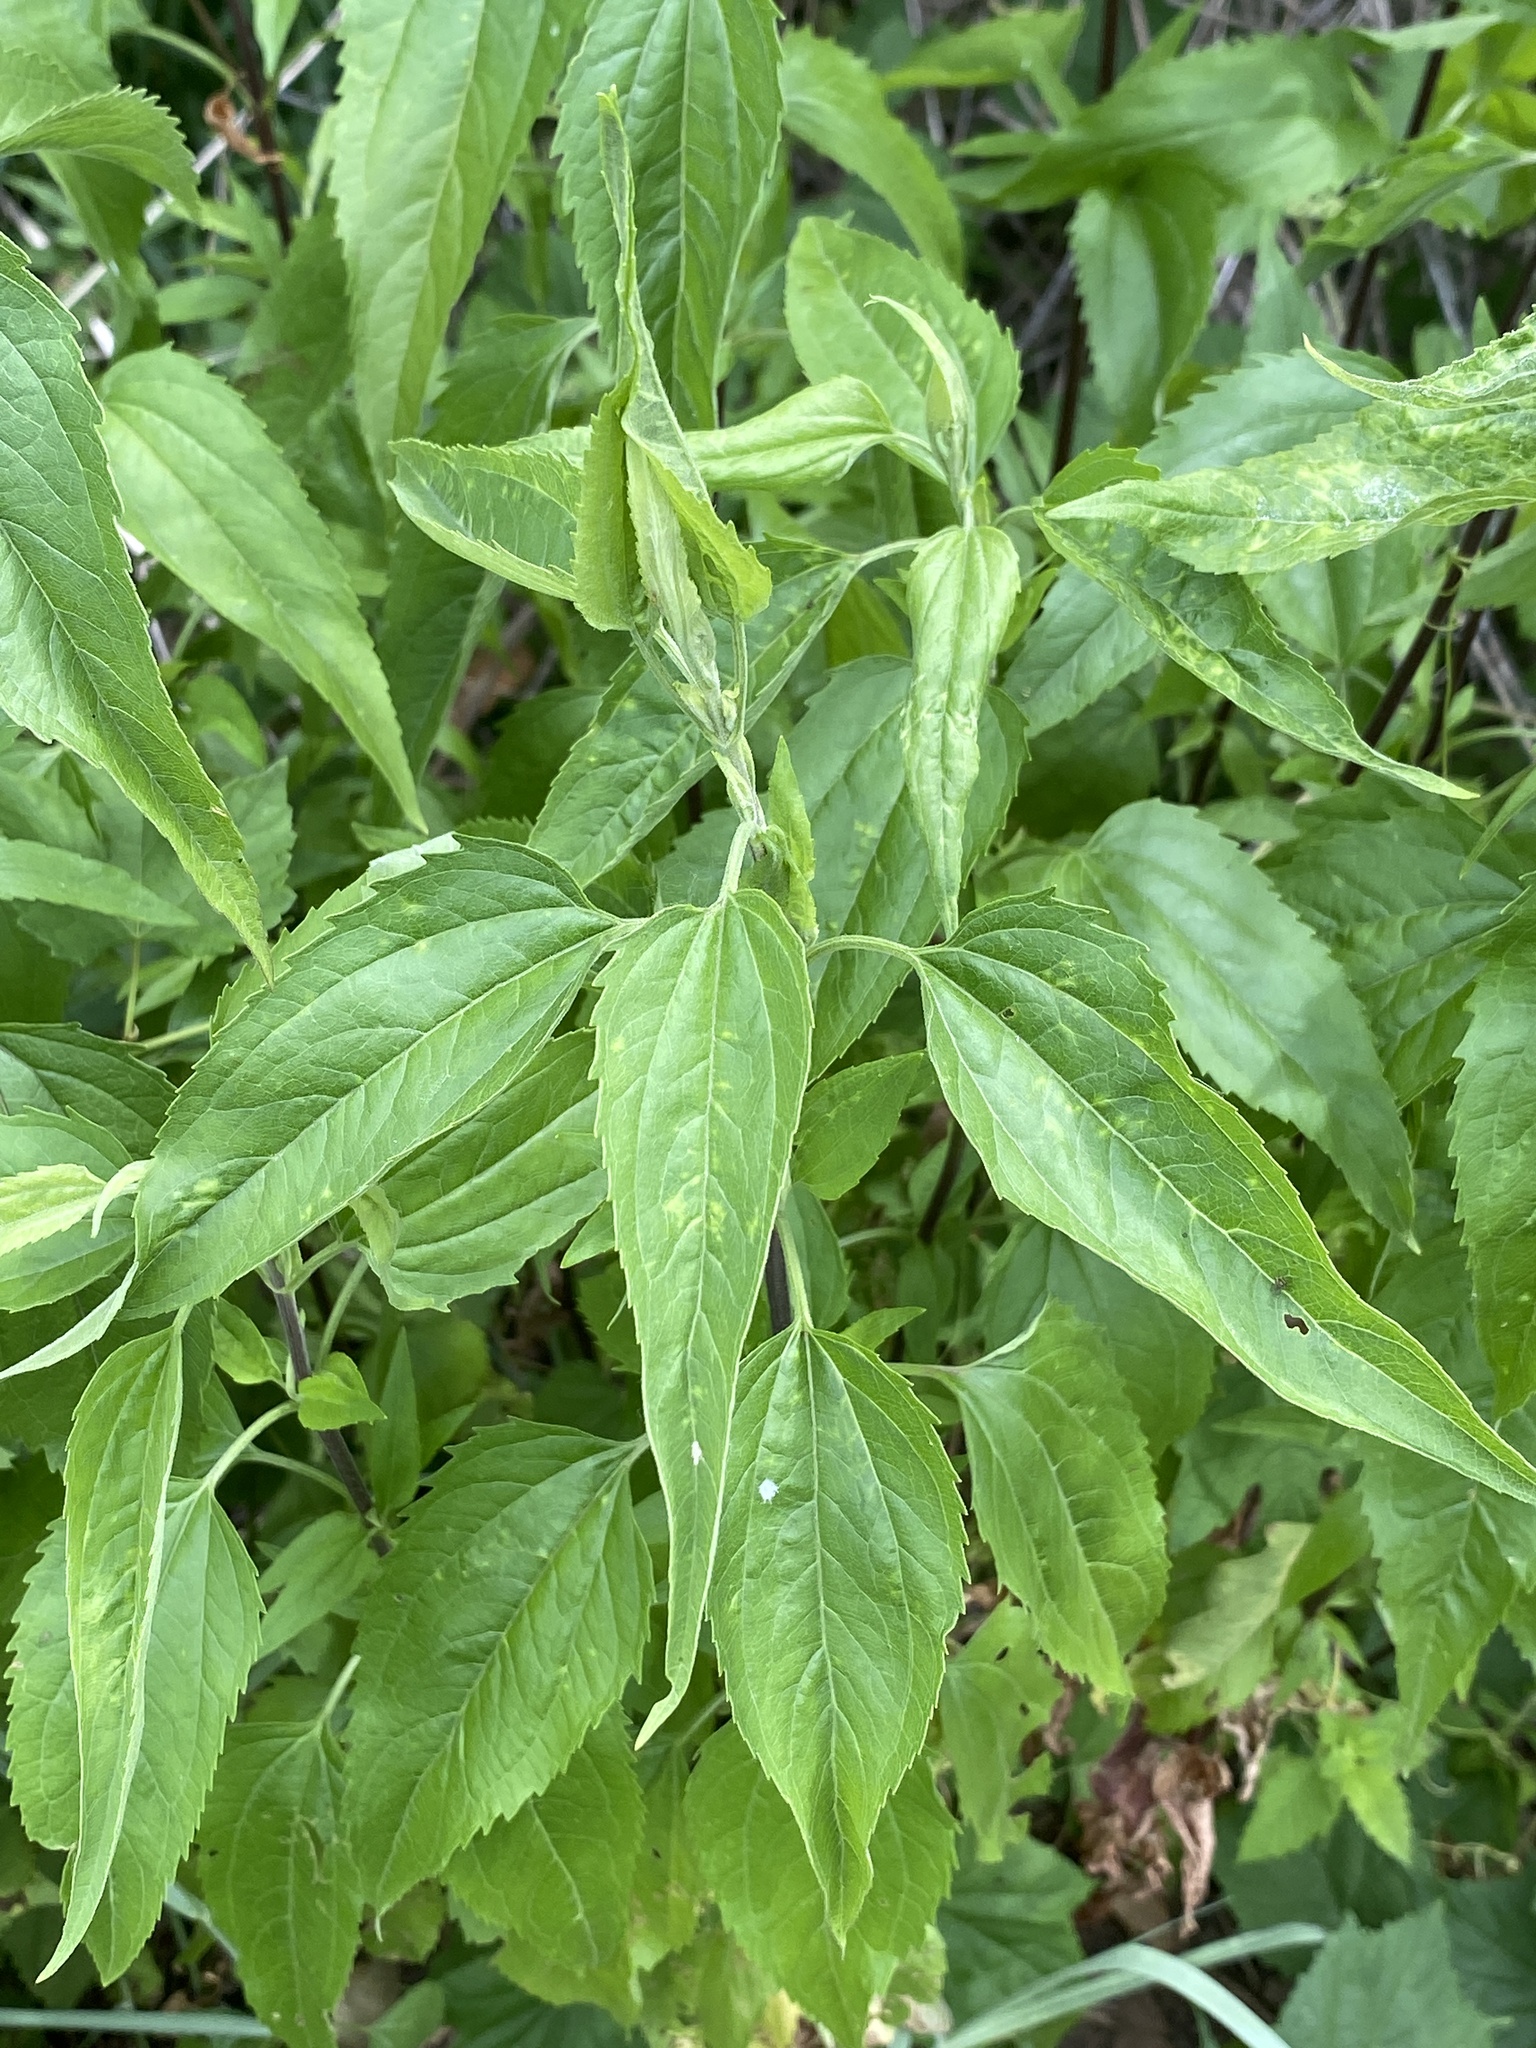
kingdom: Plantae
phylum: Tracheophyta
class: Magnoliopsida
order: Asterales
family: Asteraceae
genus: Eupatorium
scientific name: Eupatorium serotinum
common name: Late boneset
